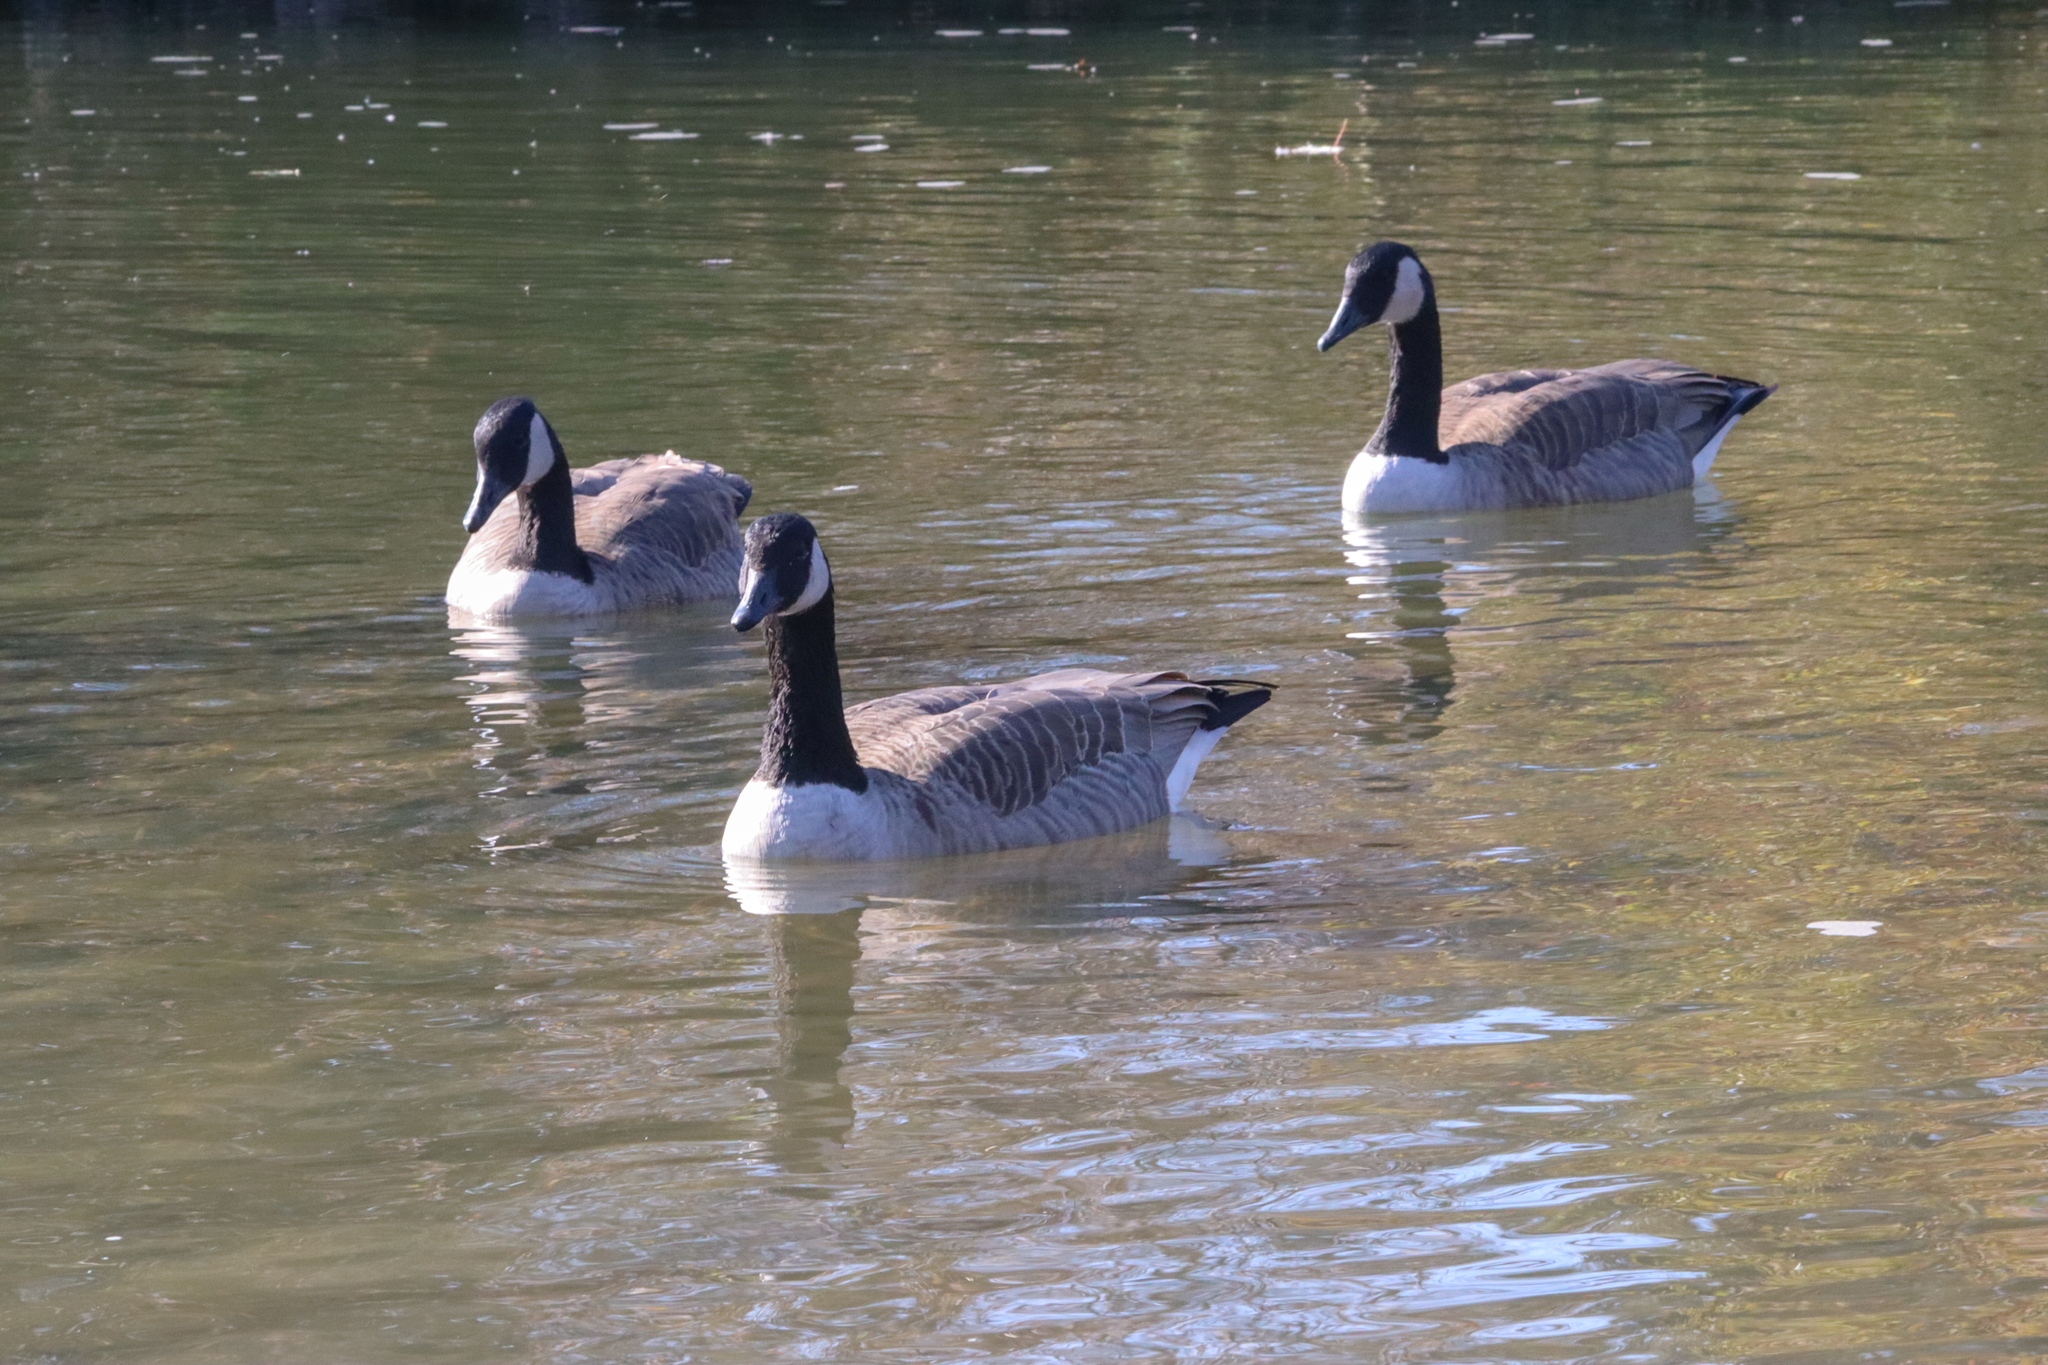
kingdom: Animalia
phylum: Chordata
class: Aves
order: Anseriformes
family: Anatidae
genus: Branta
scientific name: Branta canadensis
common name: Canada goose
